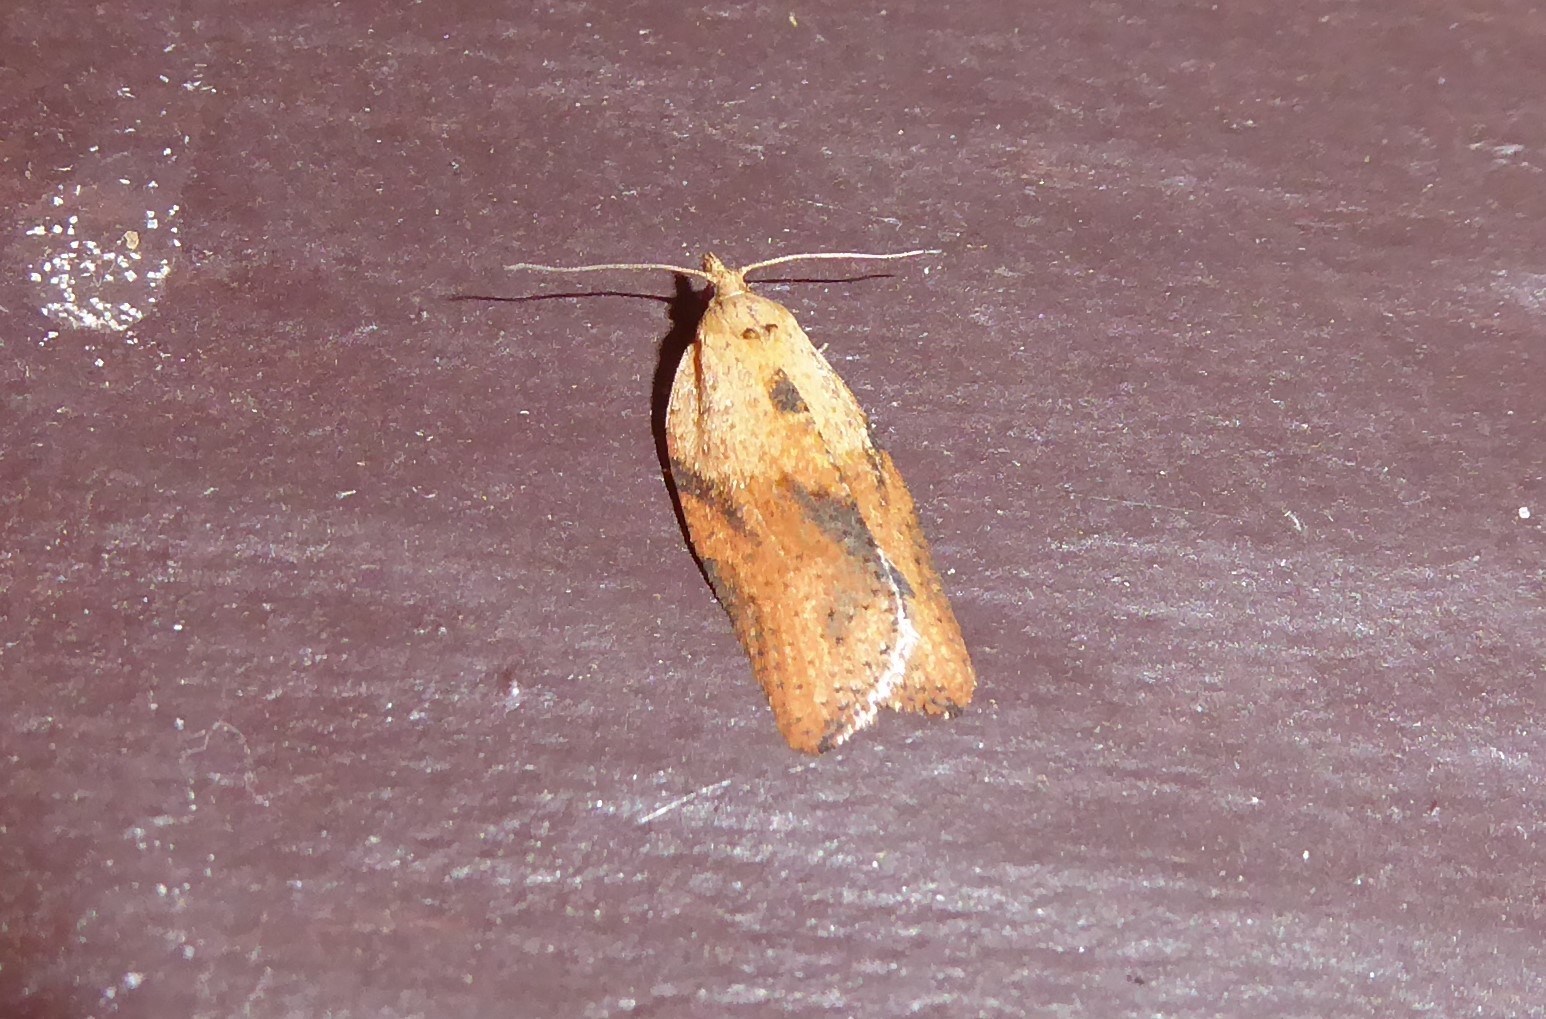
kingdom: Animalia
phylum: Arthropoda
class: Insecta
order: Lepidoptera
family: Tortricidae
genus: Epiphyas
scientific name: Epiphyas postvittana
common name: Light brown apple moth
